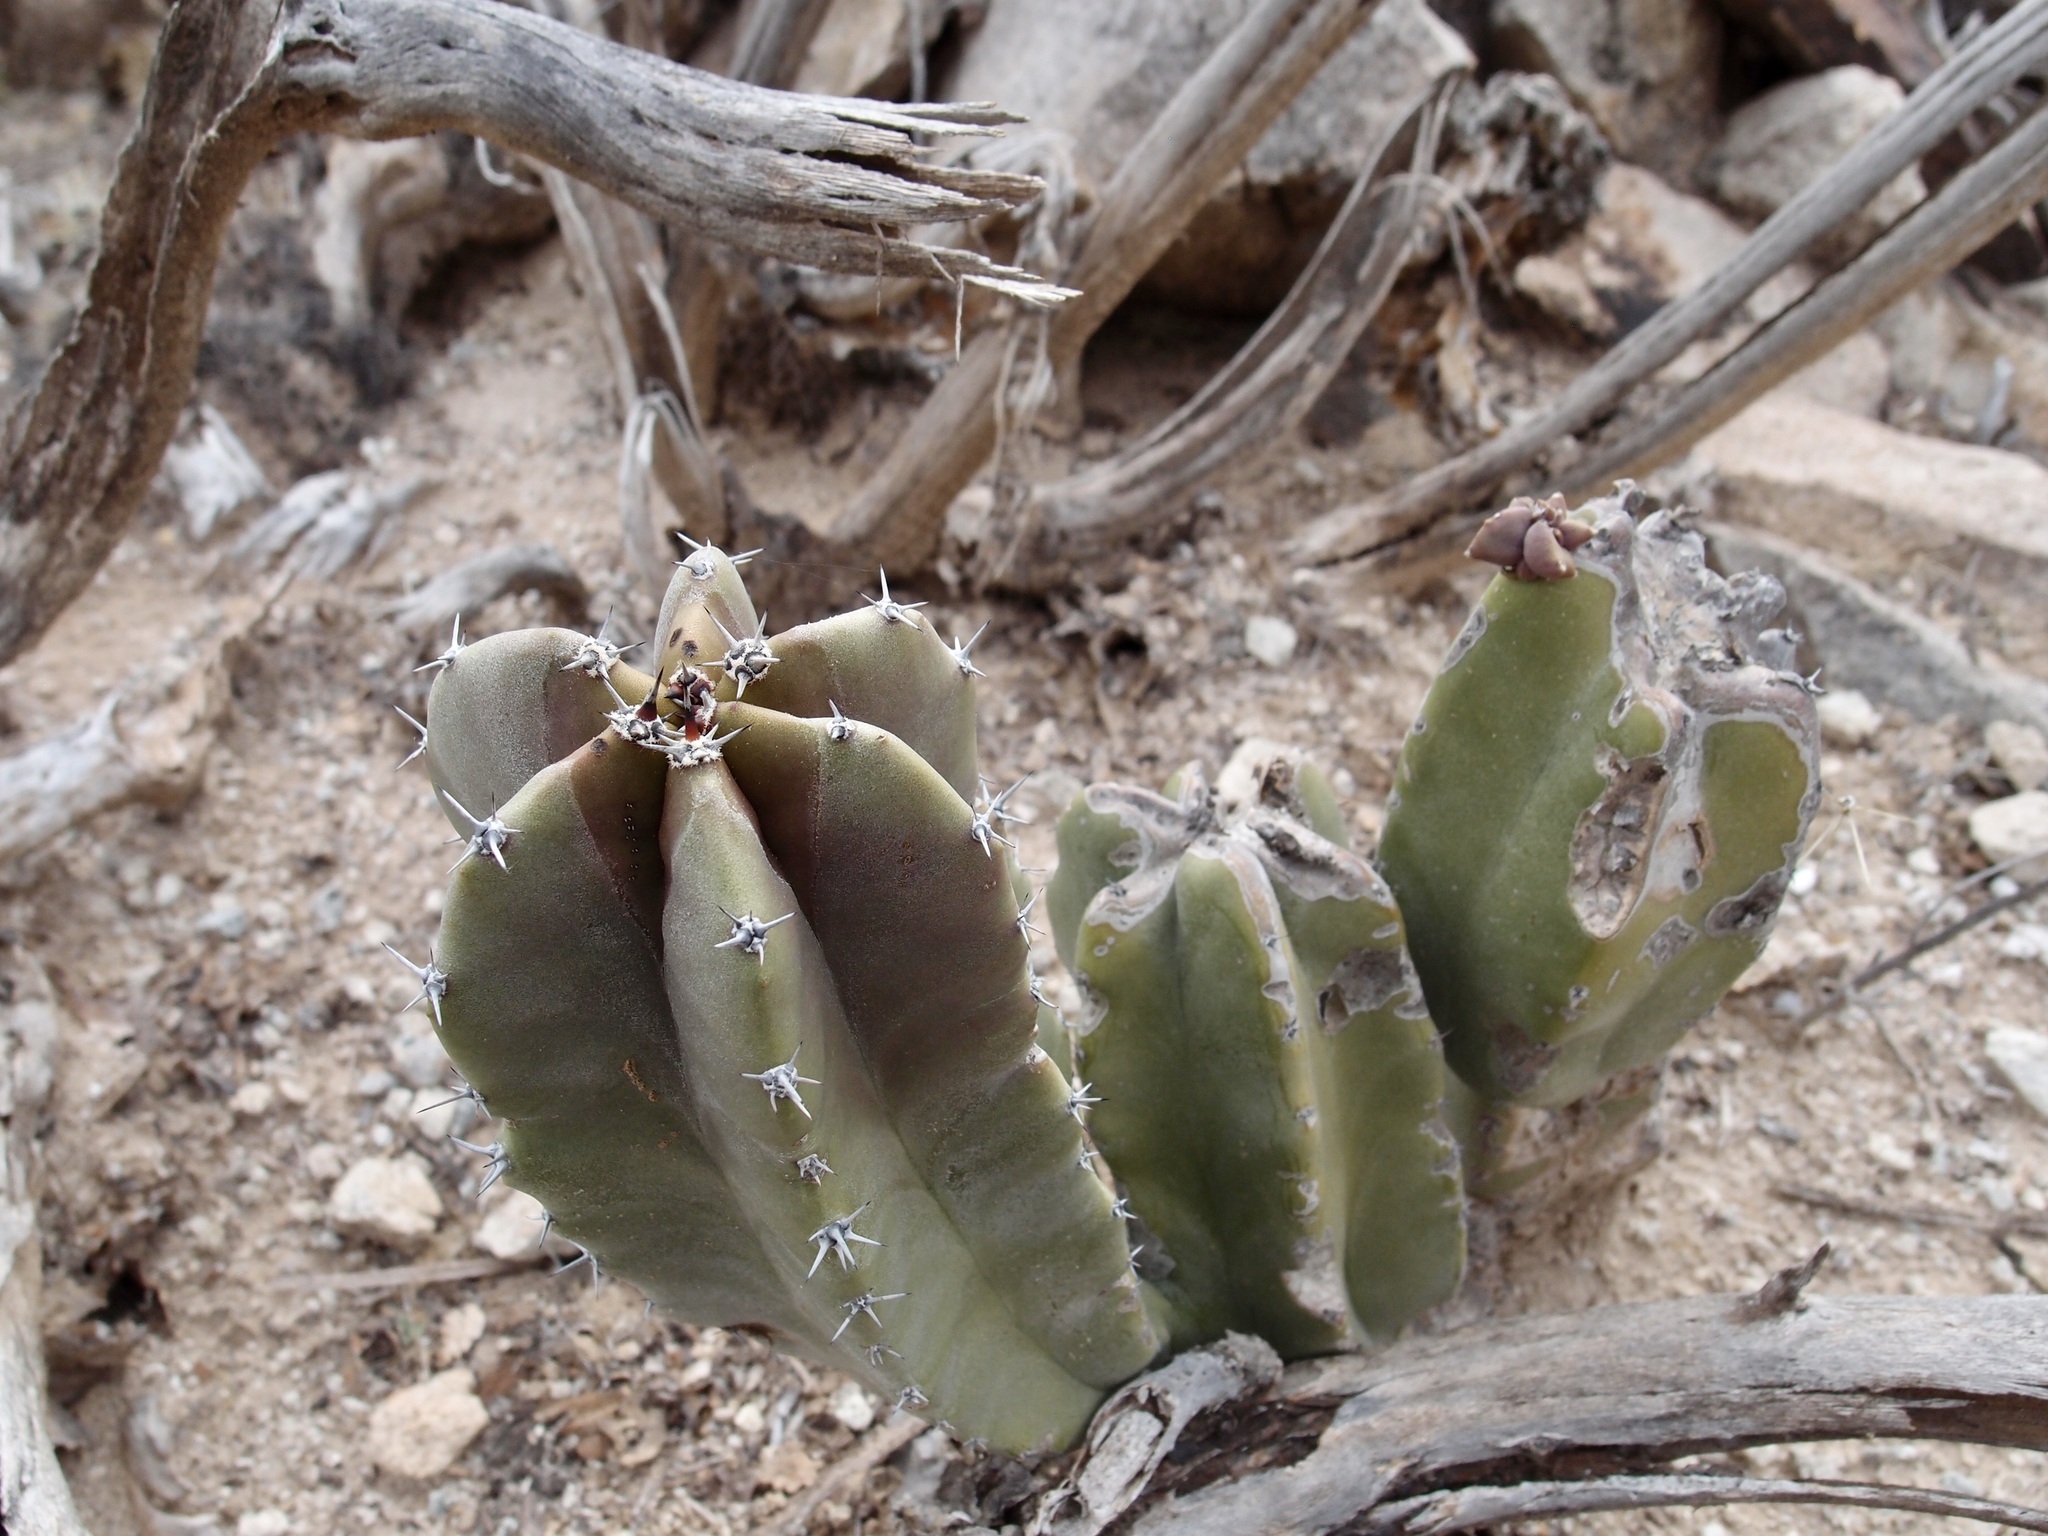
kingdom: Plantae
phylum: Tracheophyta
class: Magnoliopsida
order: Caryophyllales
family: Cactaceae
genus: Pachycereus
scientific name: Pachycereus schottii
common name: Senita cactus
